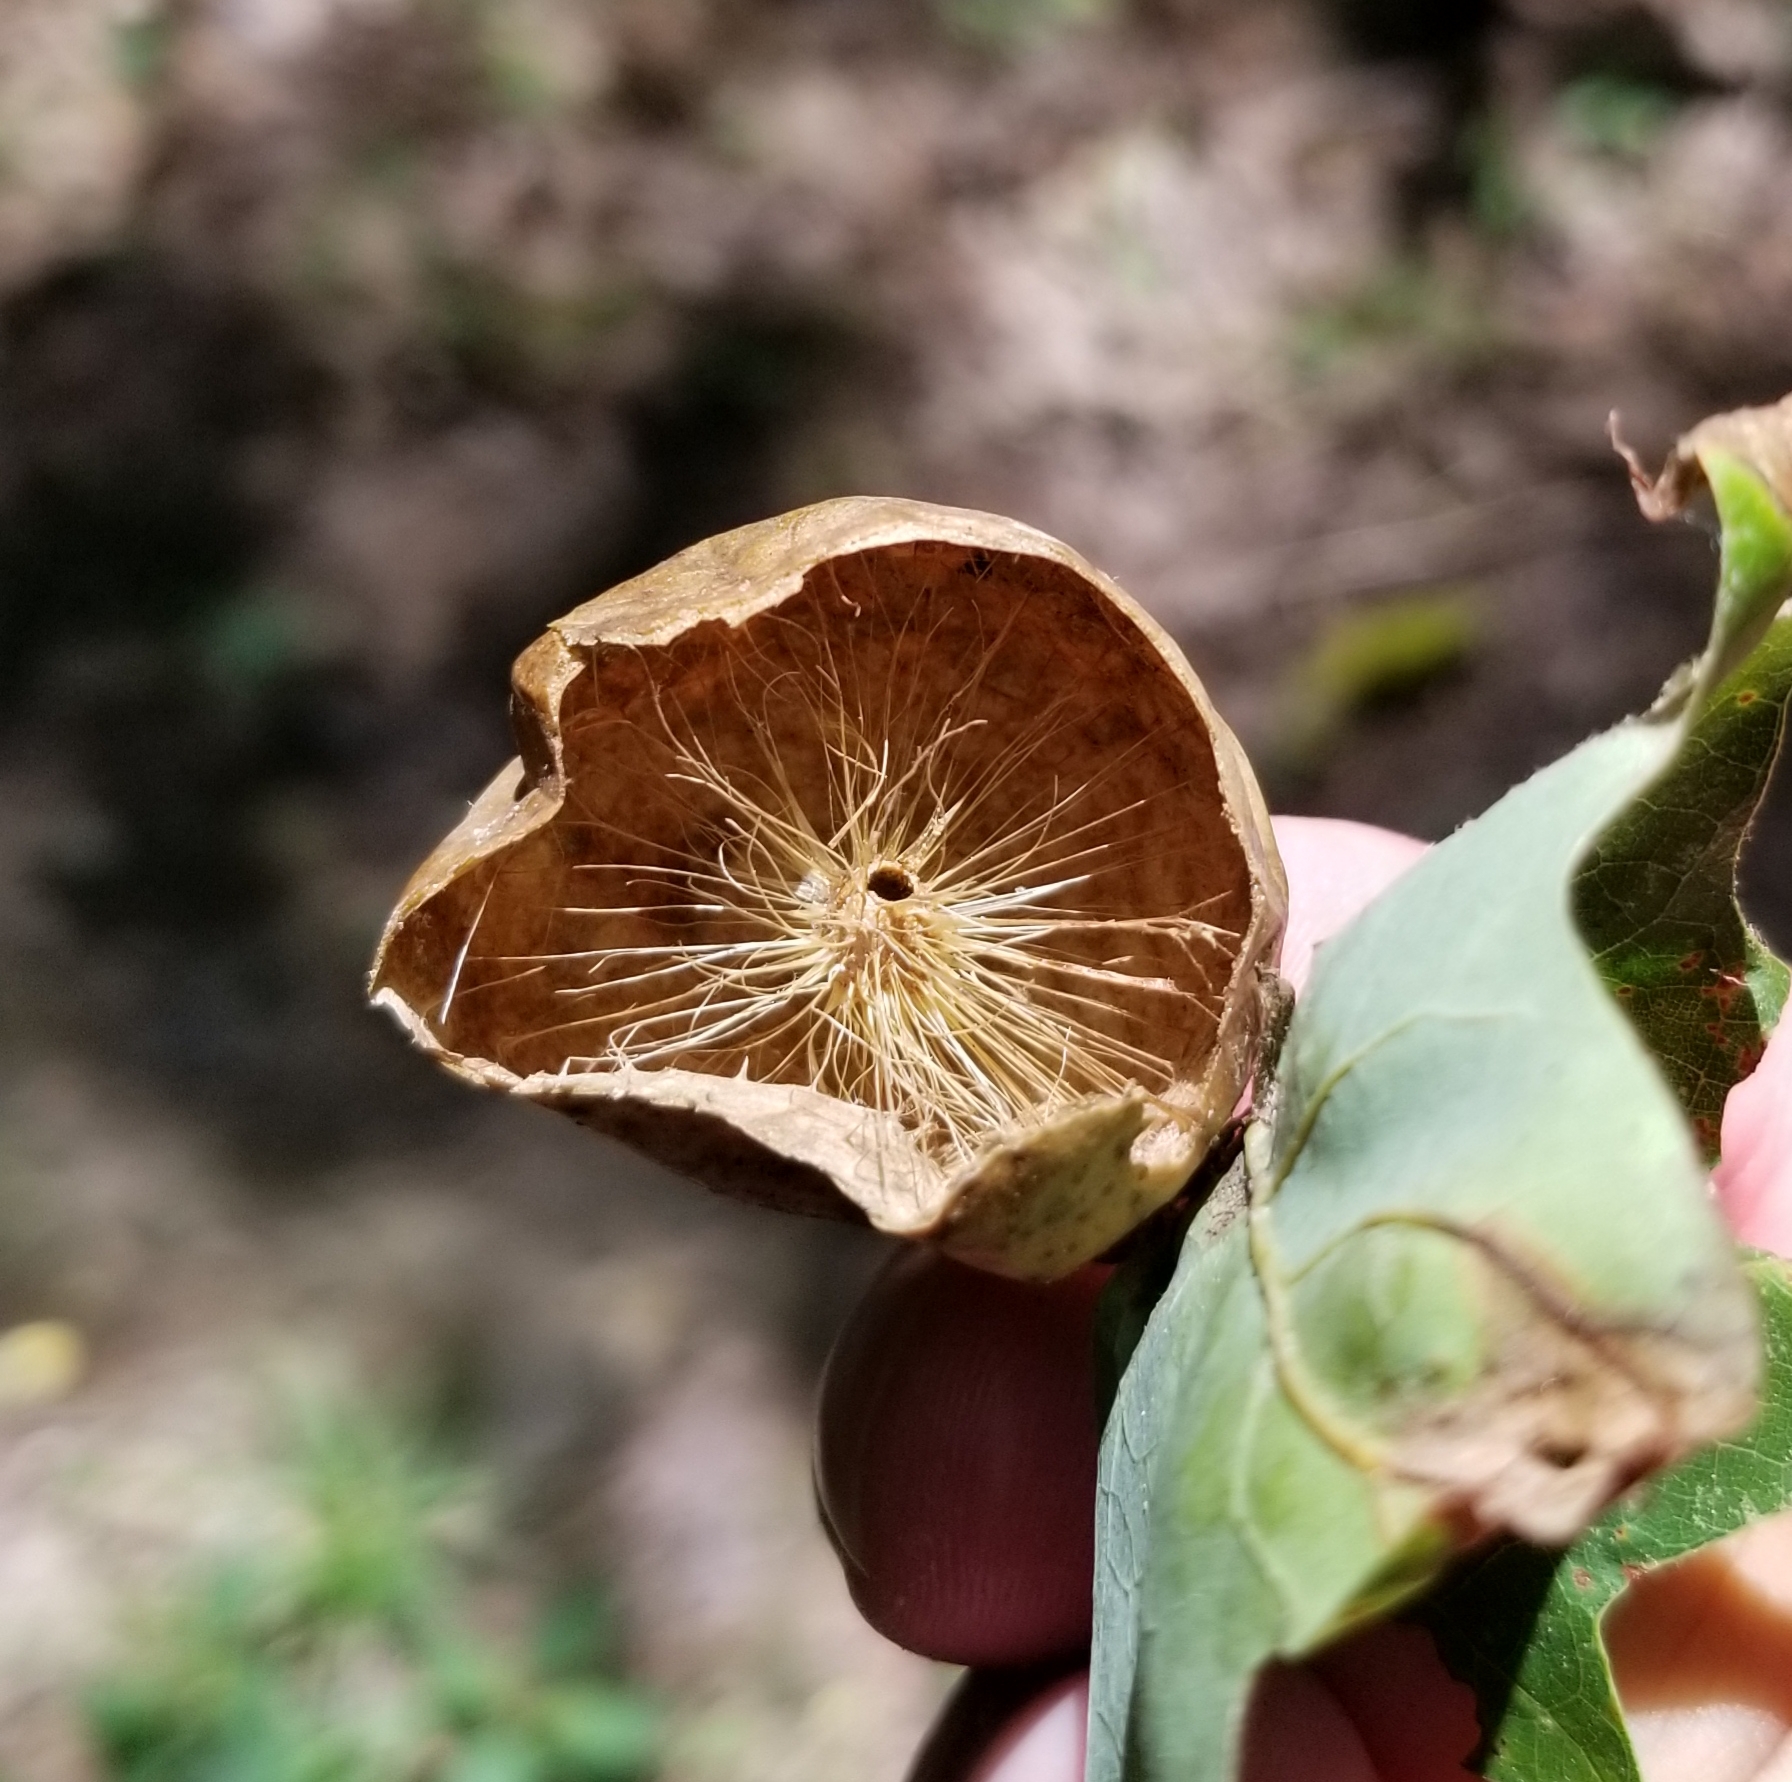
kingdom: Animalia
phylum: Arthropoda
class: Insecta
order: Hymenoptera
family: Cynipidae
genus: Amphibolips
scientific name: Amphibolips
